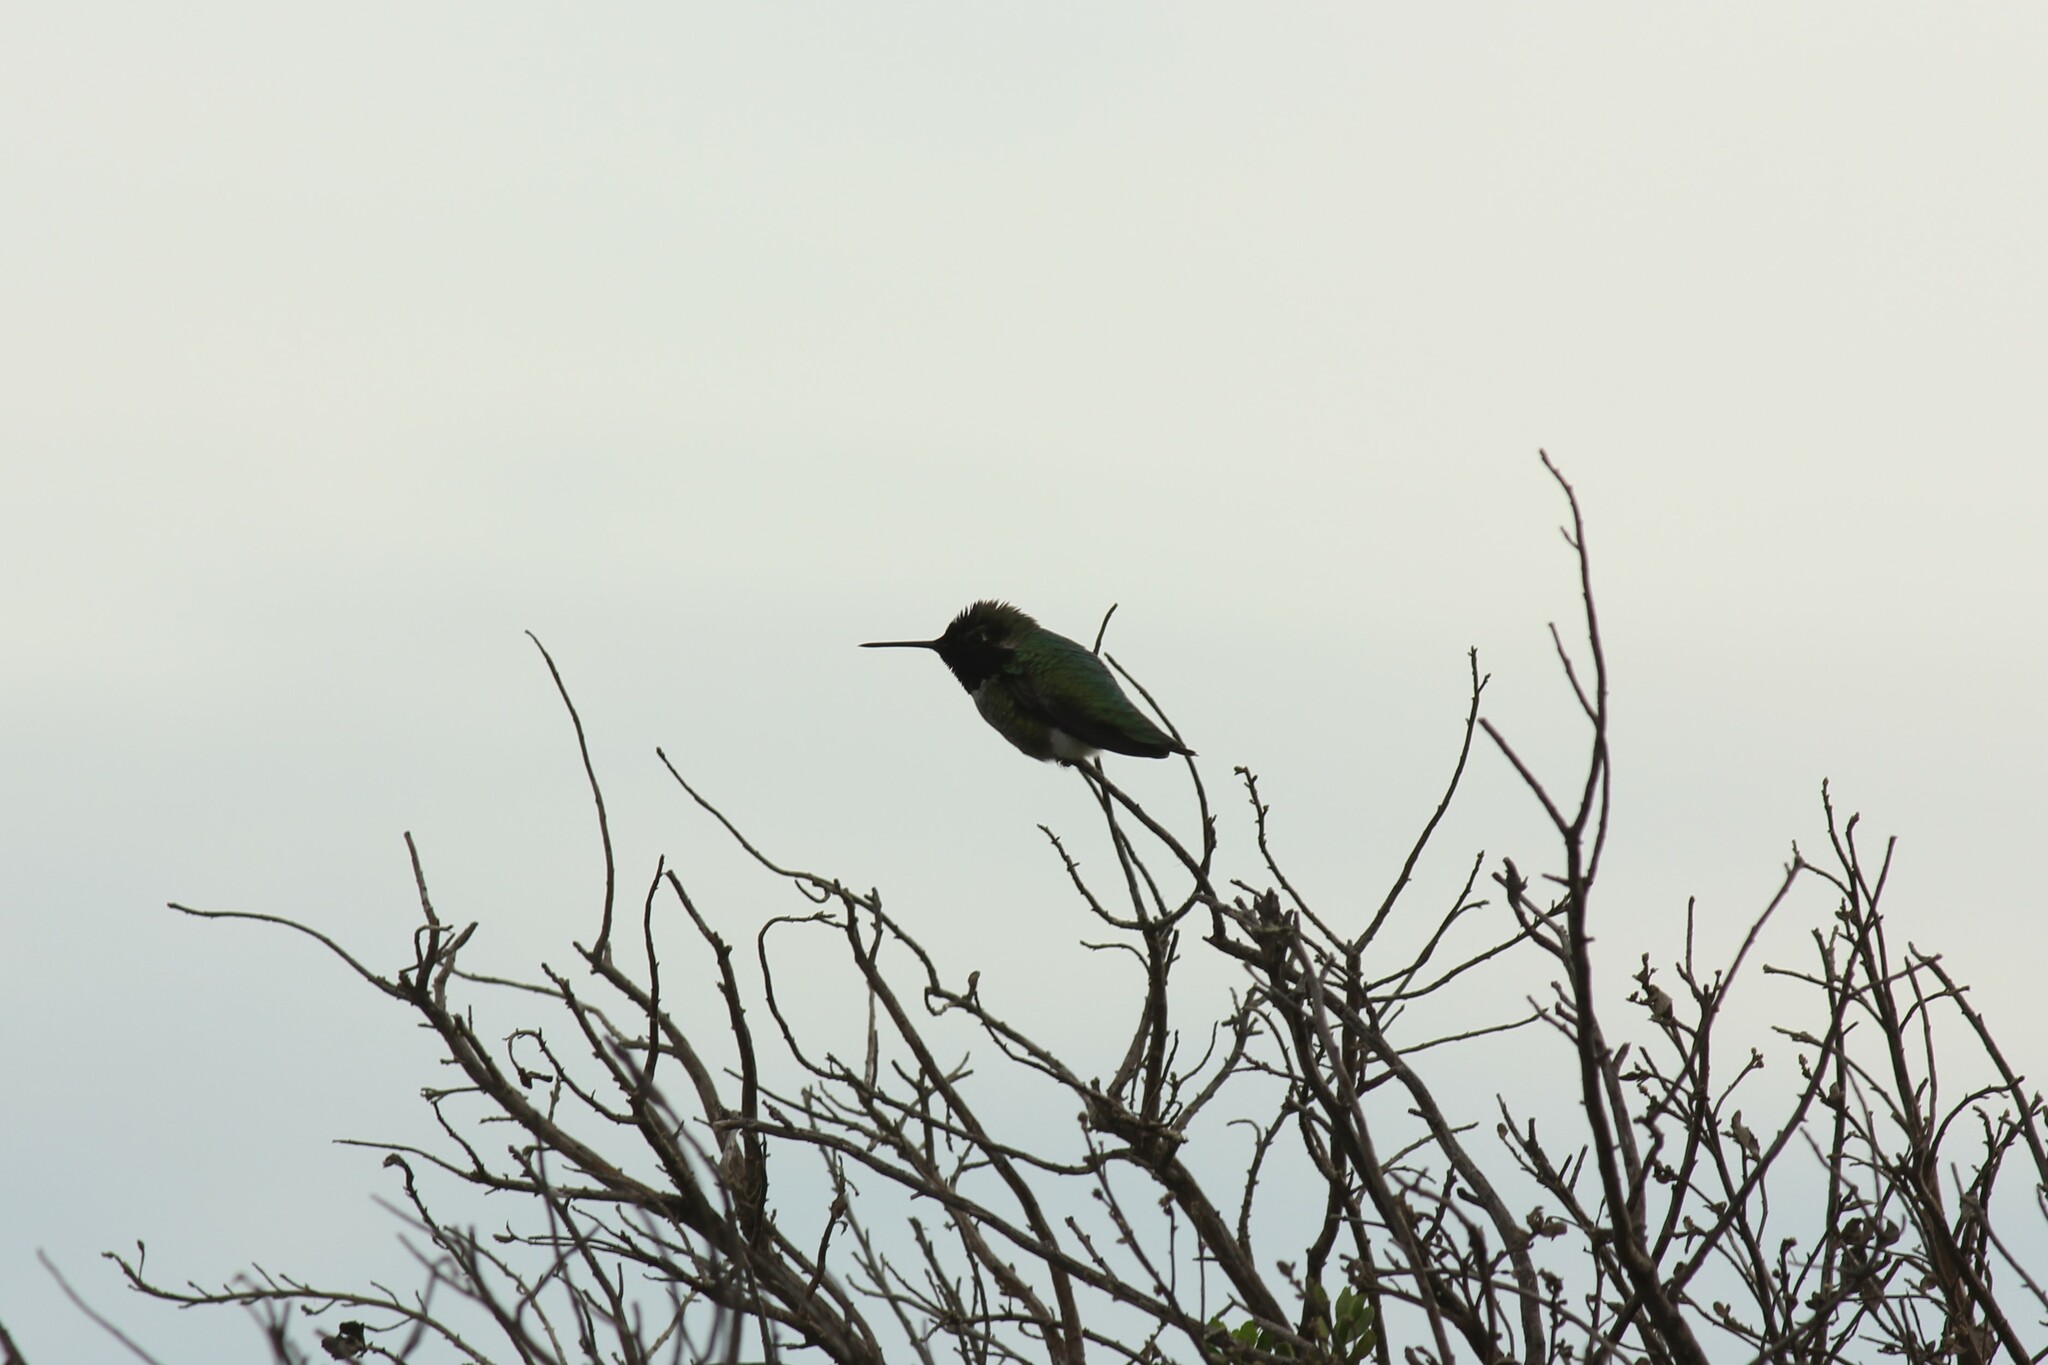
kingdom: Animalia
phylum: Chordata
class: Aves
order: Apodiformes
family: Trochilidae
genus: Calypte
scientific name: Calypte anna
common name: Anna's hummingbird
